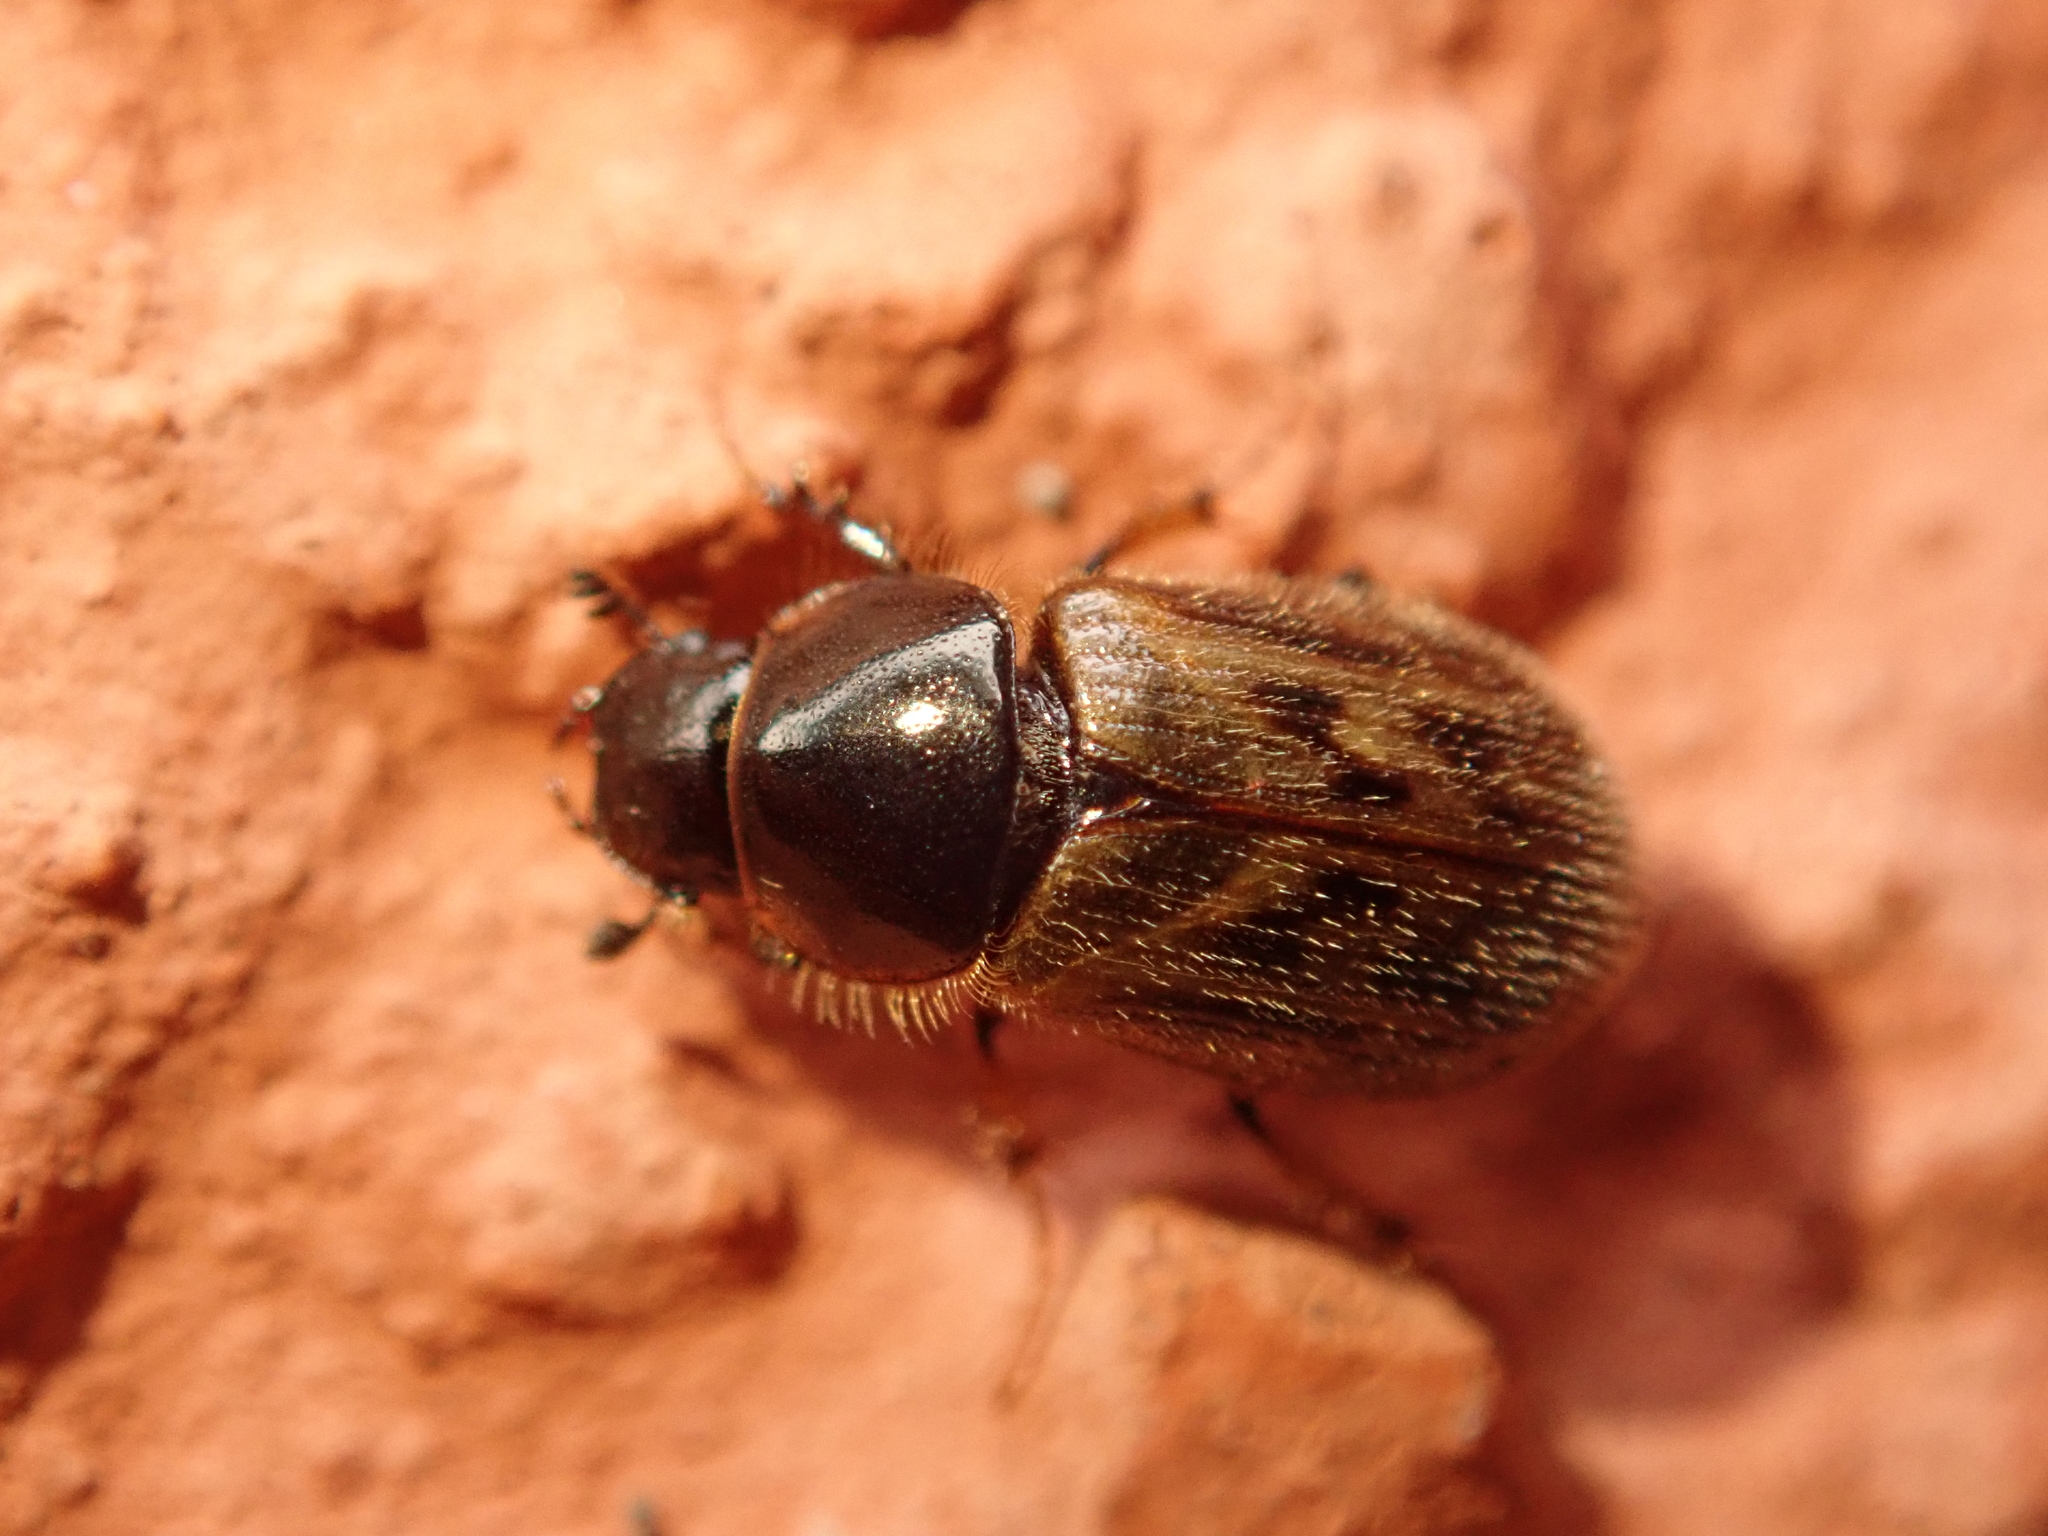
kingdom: Animalia
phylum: Arthropoda
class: Insecta
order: Coleoptera
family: Scarabaeidae
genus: Nimbus
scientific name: Nimbus contaminatus
